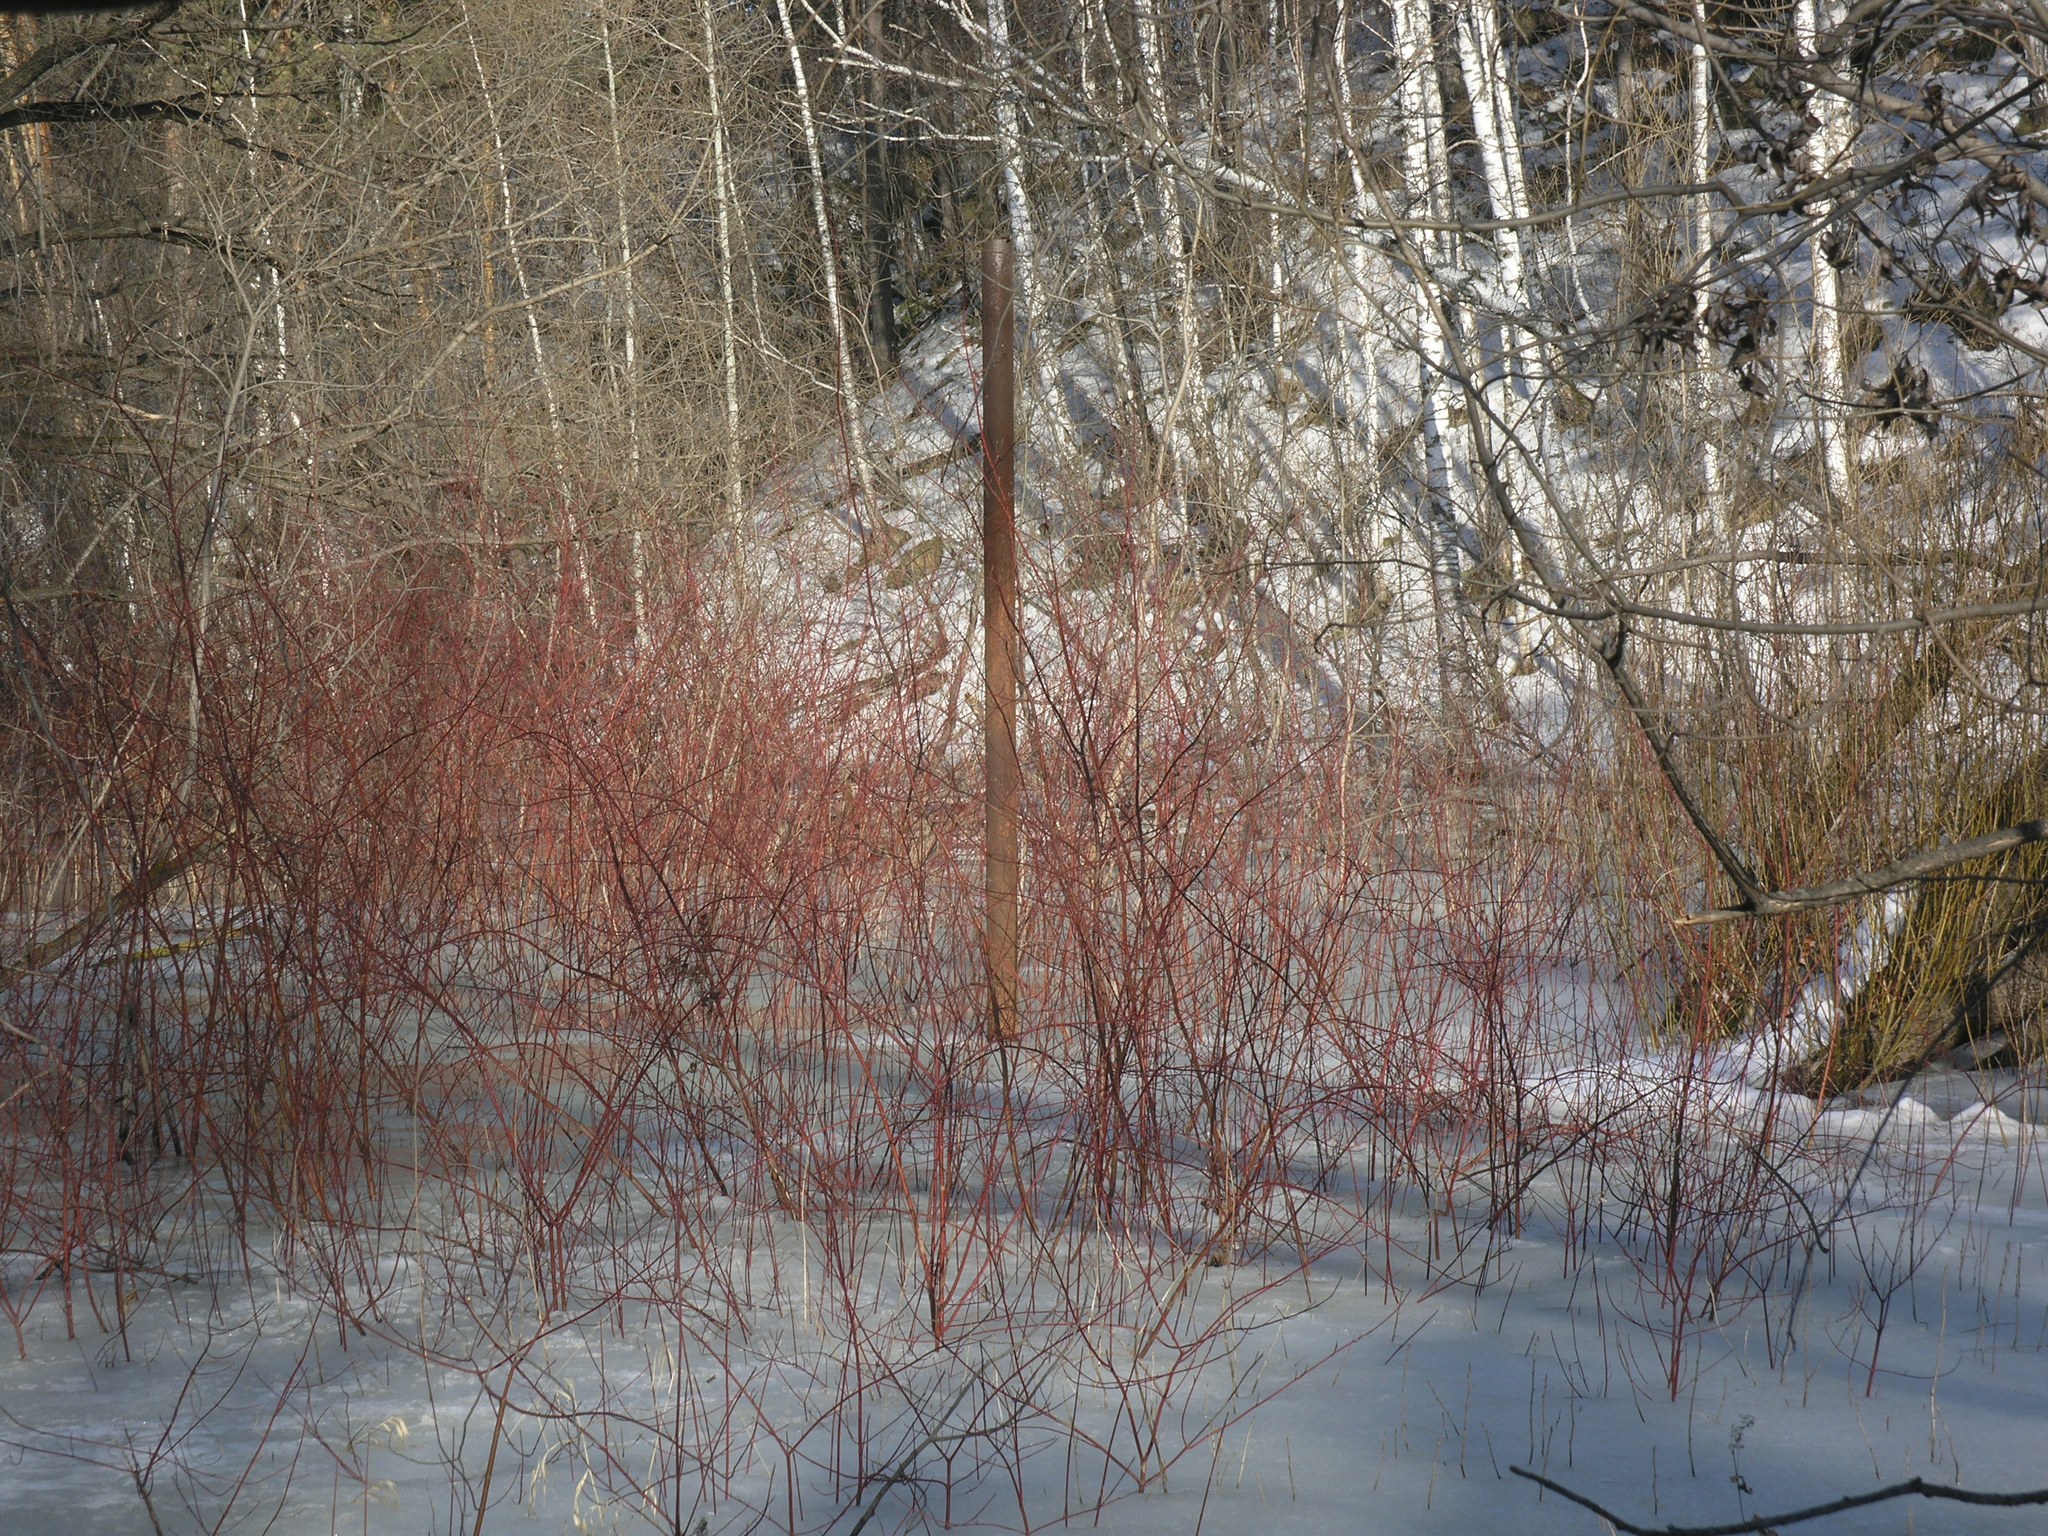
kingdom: Plantae
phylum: Tracheophyta
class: Magnoliopsida
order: Cornales
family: Cornaceae
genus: Cornus
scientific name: Cornus alba
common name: White dogwood
